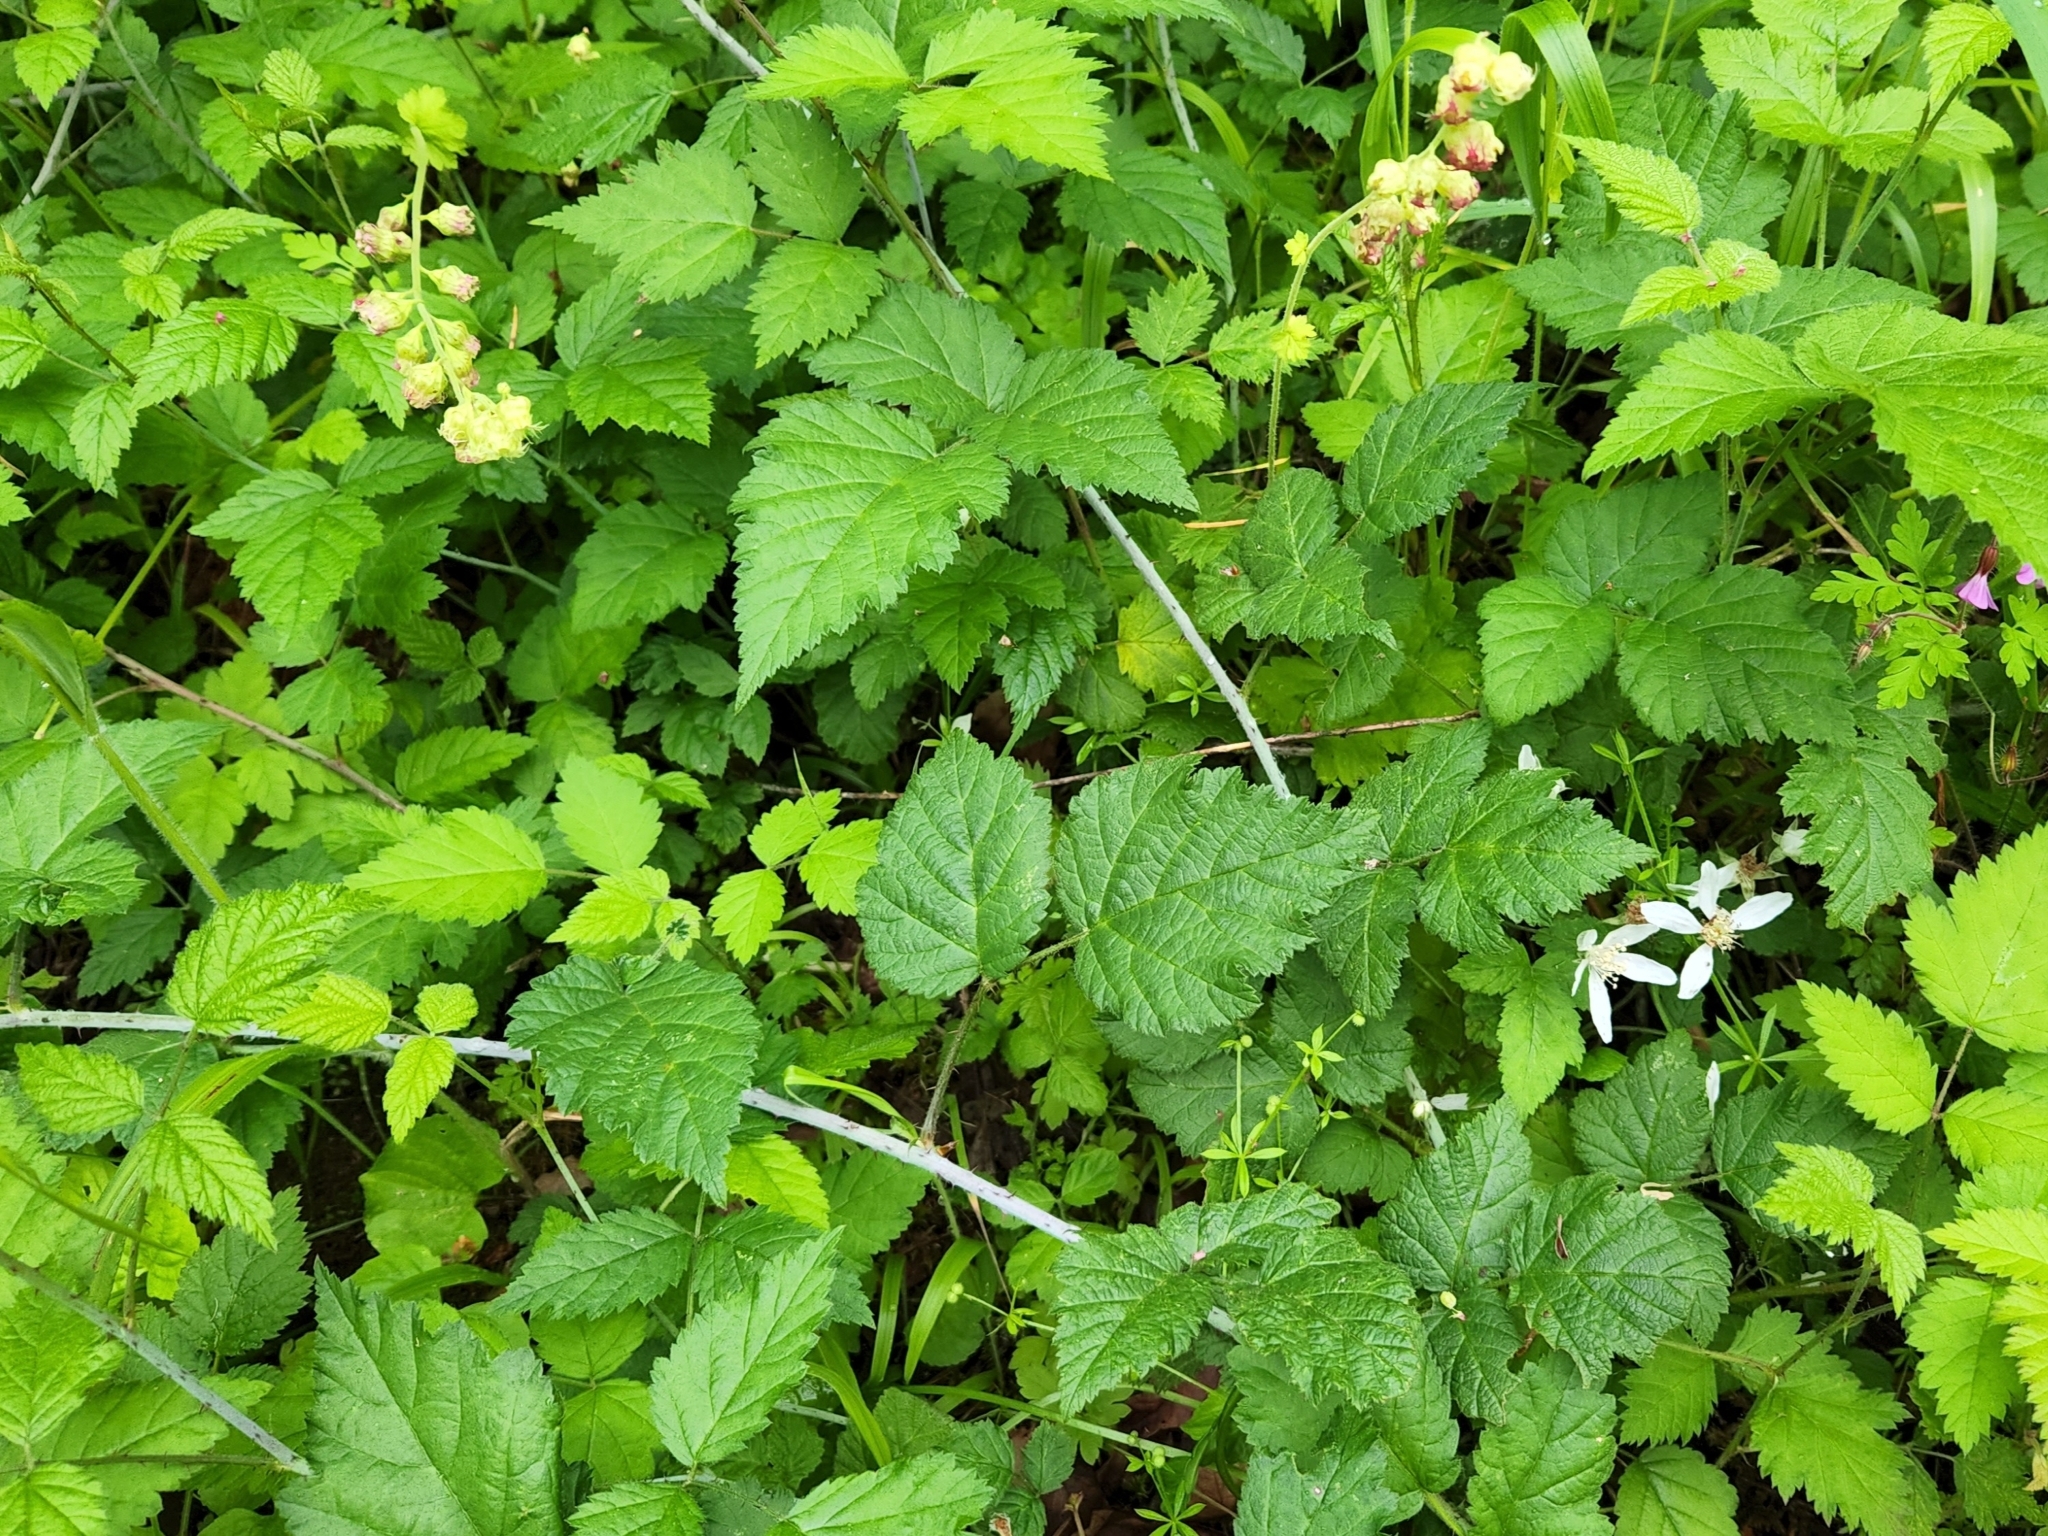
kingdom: Plantae
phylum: Tracheophyta
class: Magnoliopsida
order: Rosales
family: Rosaceae
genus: Rubus
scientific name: Rubus ursinus
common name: Pacific blackberry
